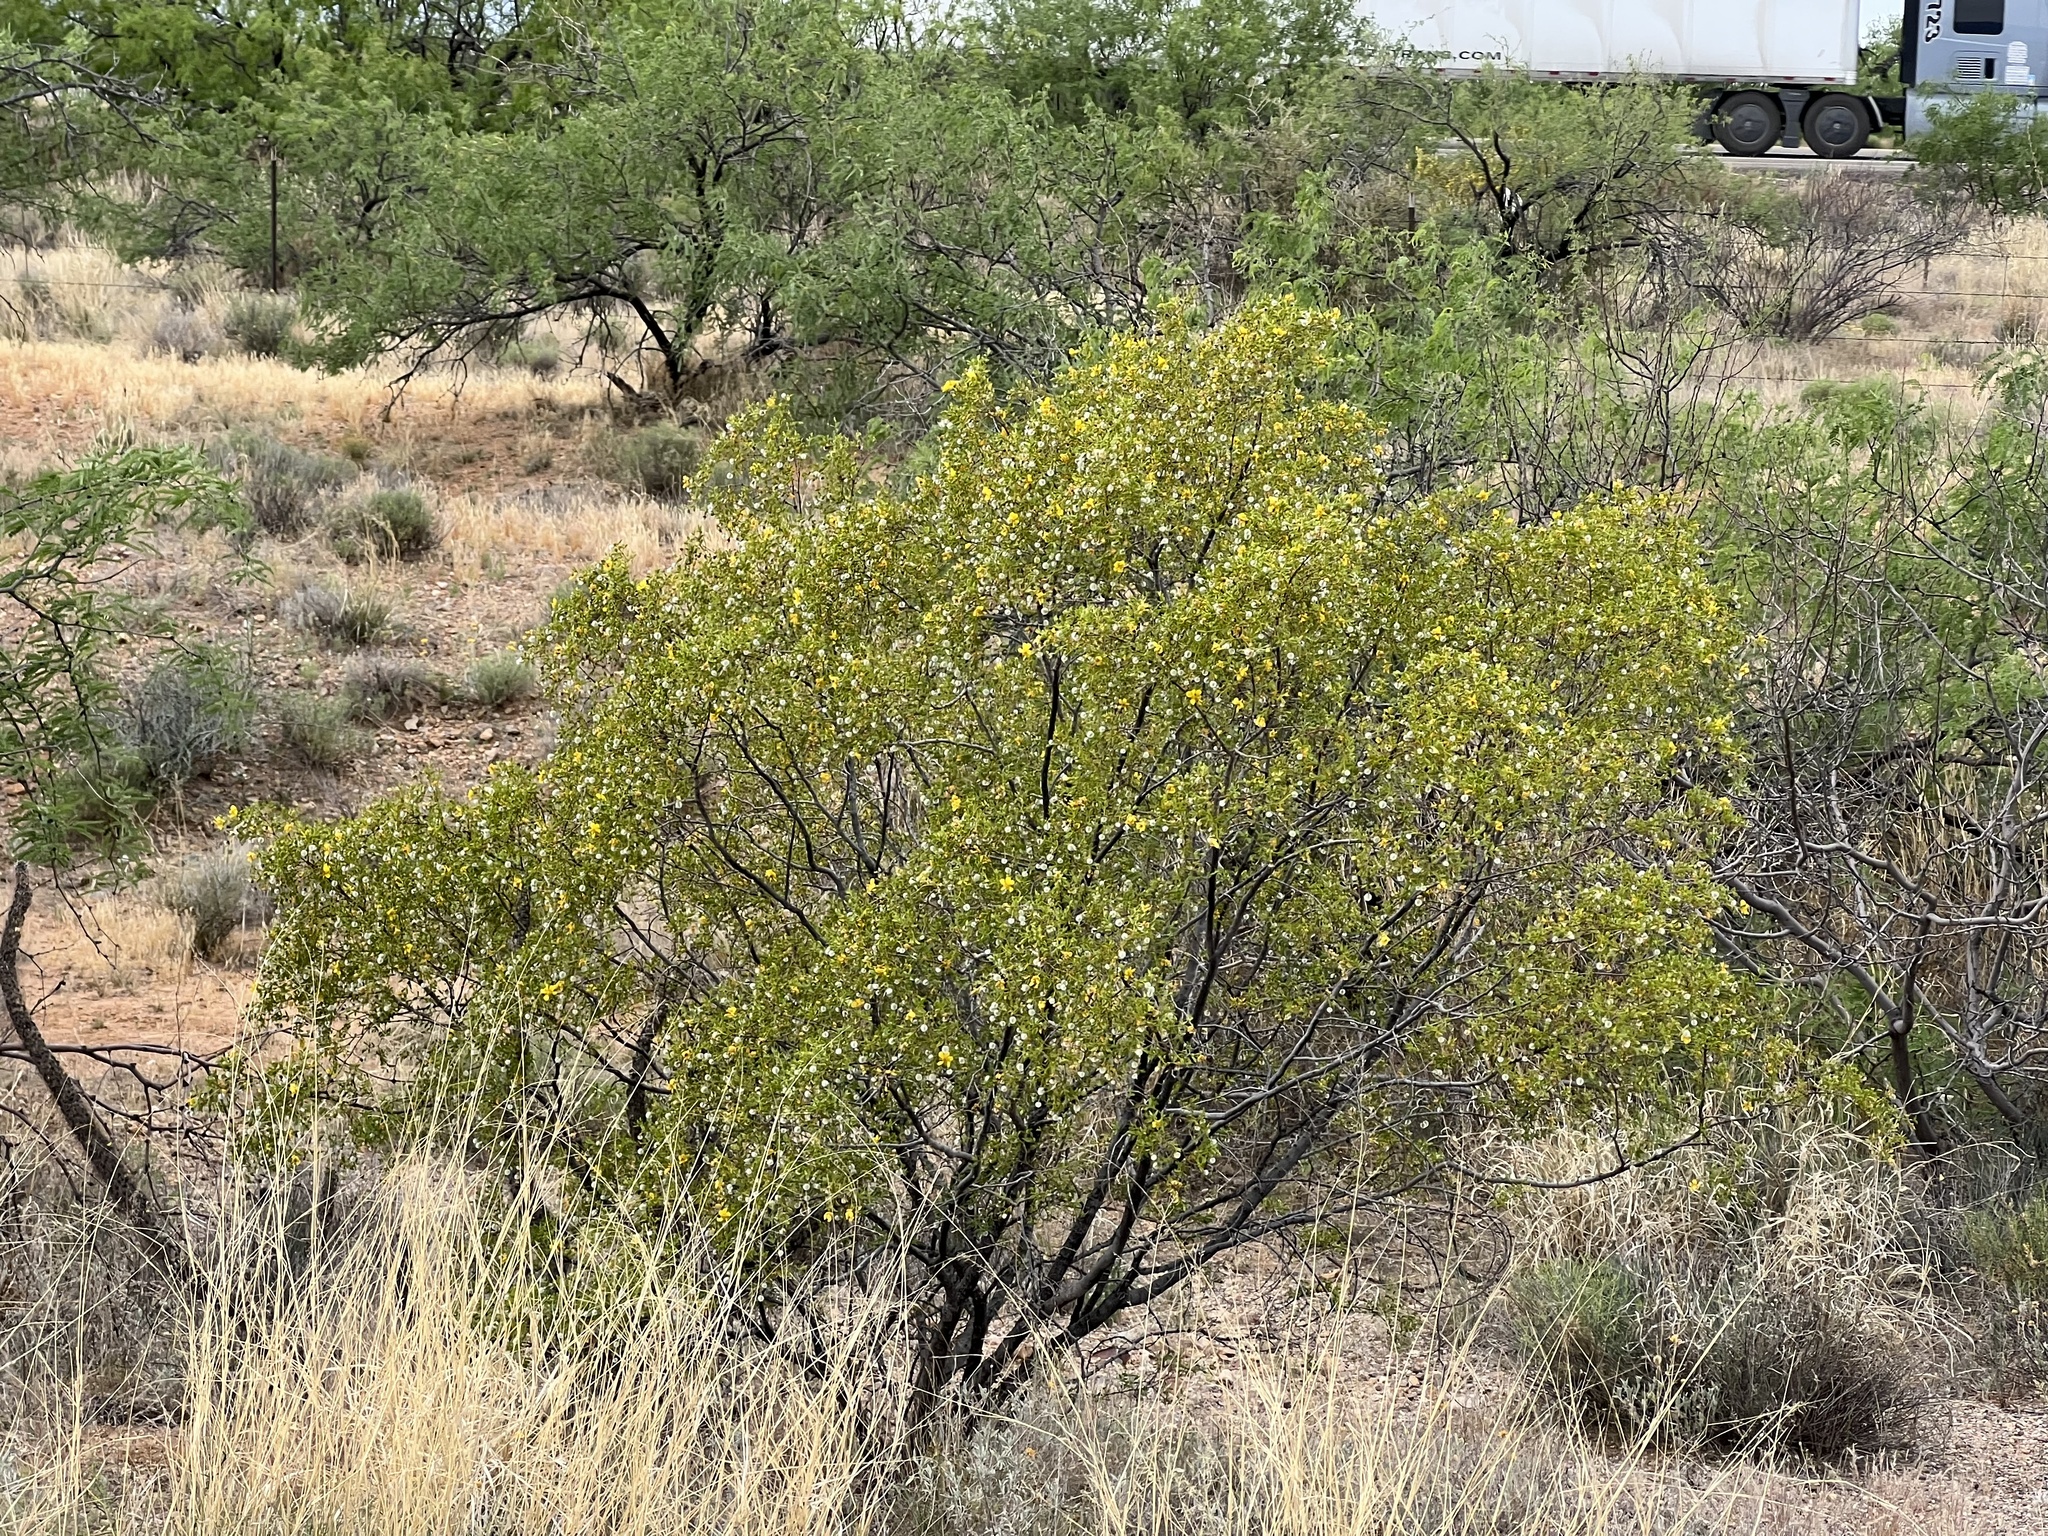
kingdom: Plantae
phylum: Tracheophyta
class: Magnoliopsida
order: Zygophyllales
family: Zygophyllaceae
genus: Larrea
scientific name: Larrea tridentata
